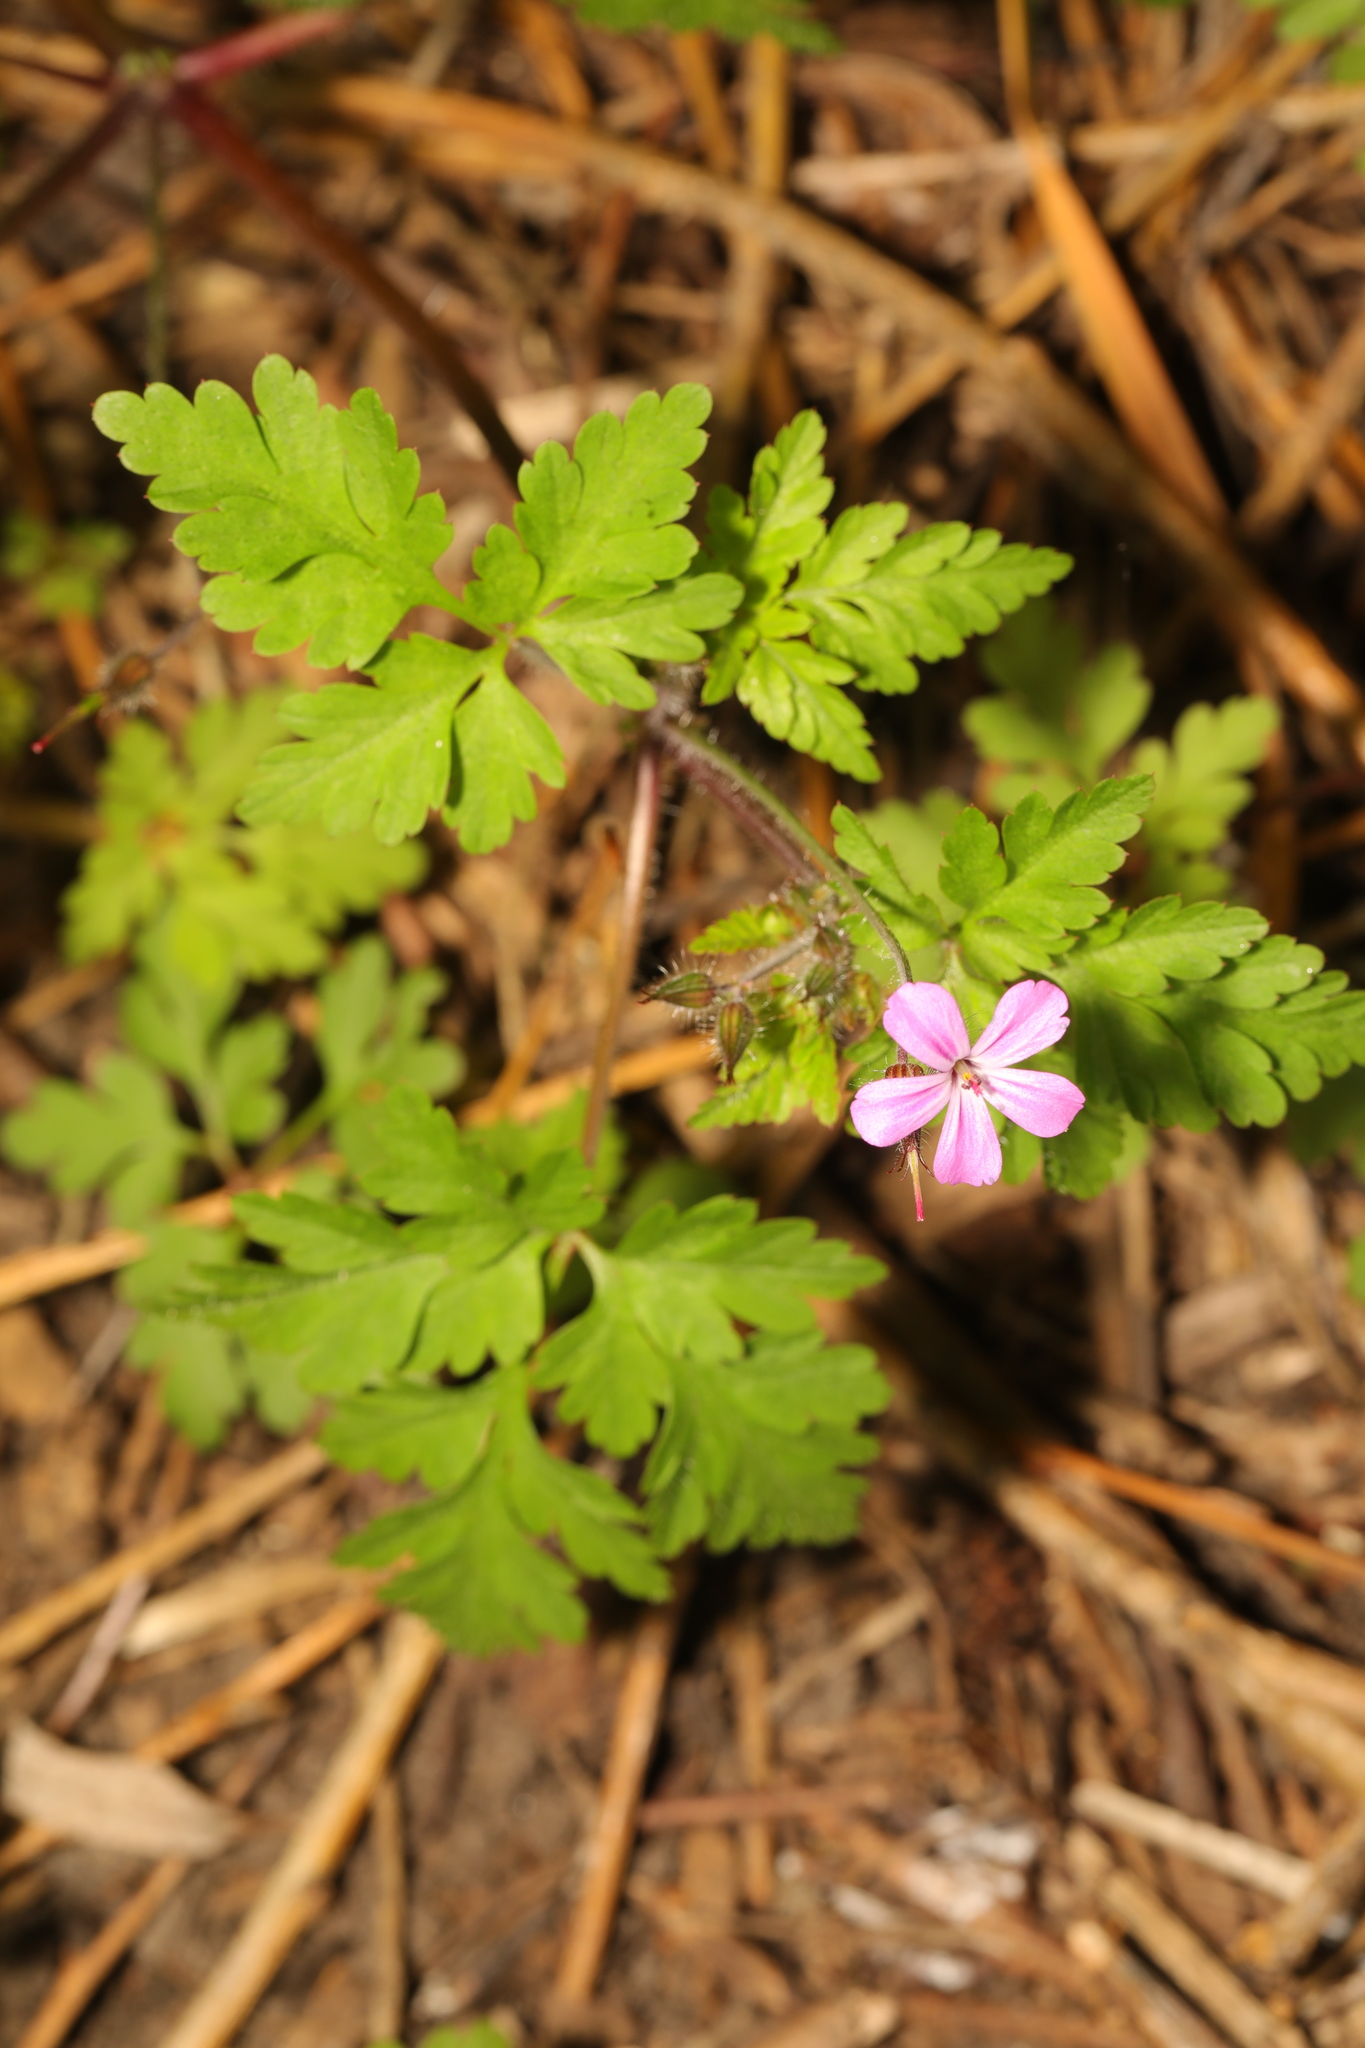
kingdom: Plantae
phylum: Tracheophyta
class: Magnoliopsida
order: Geraniales
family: Geraniaceae
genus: Geranium
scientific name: Geranium robertianum
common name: Herb-robert
